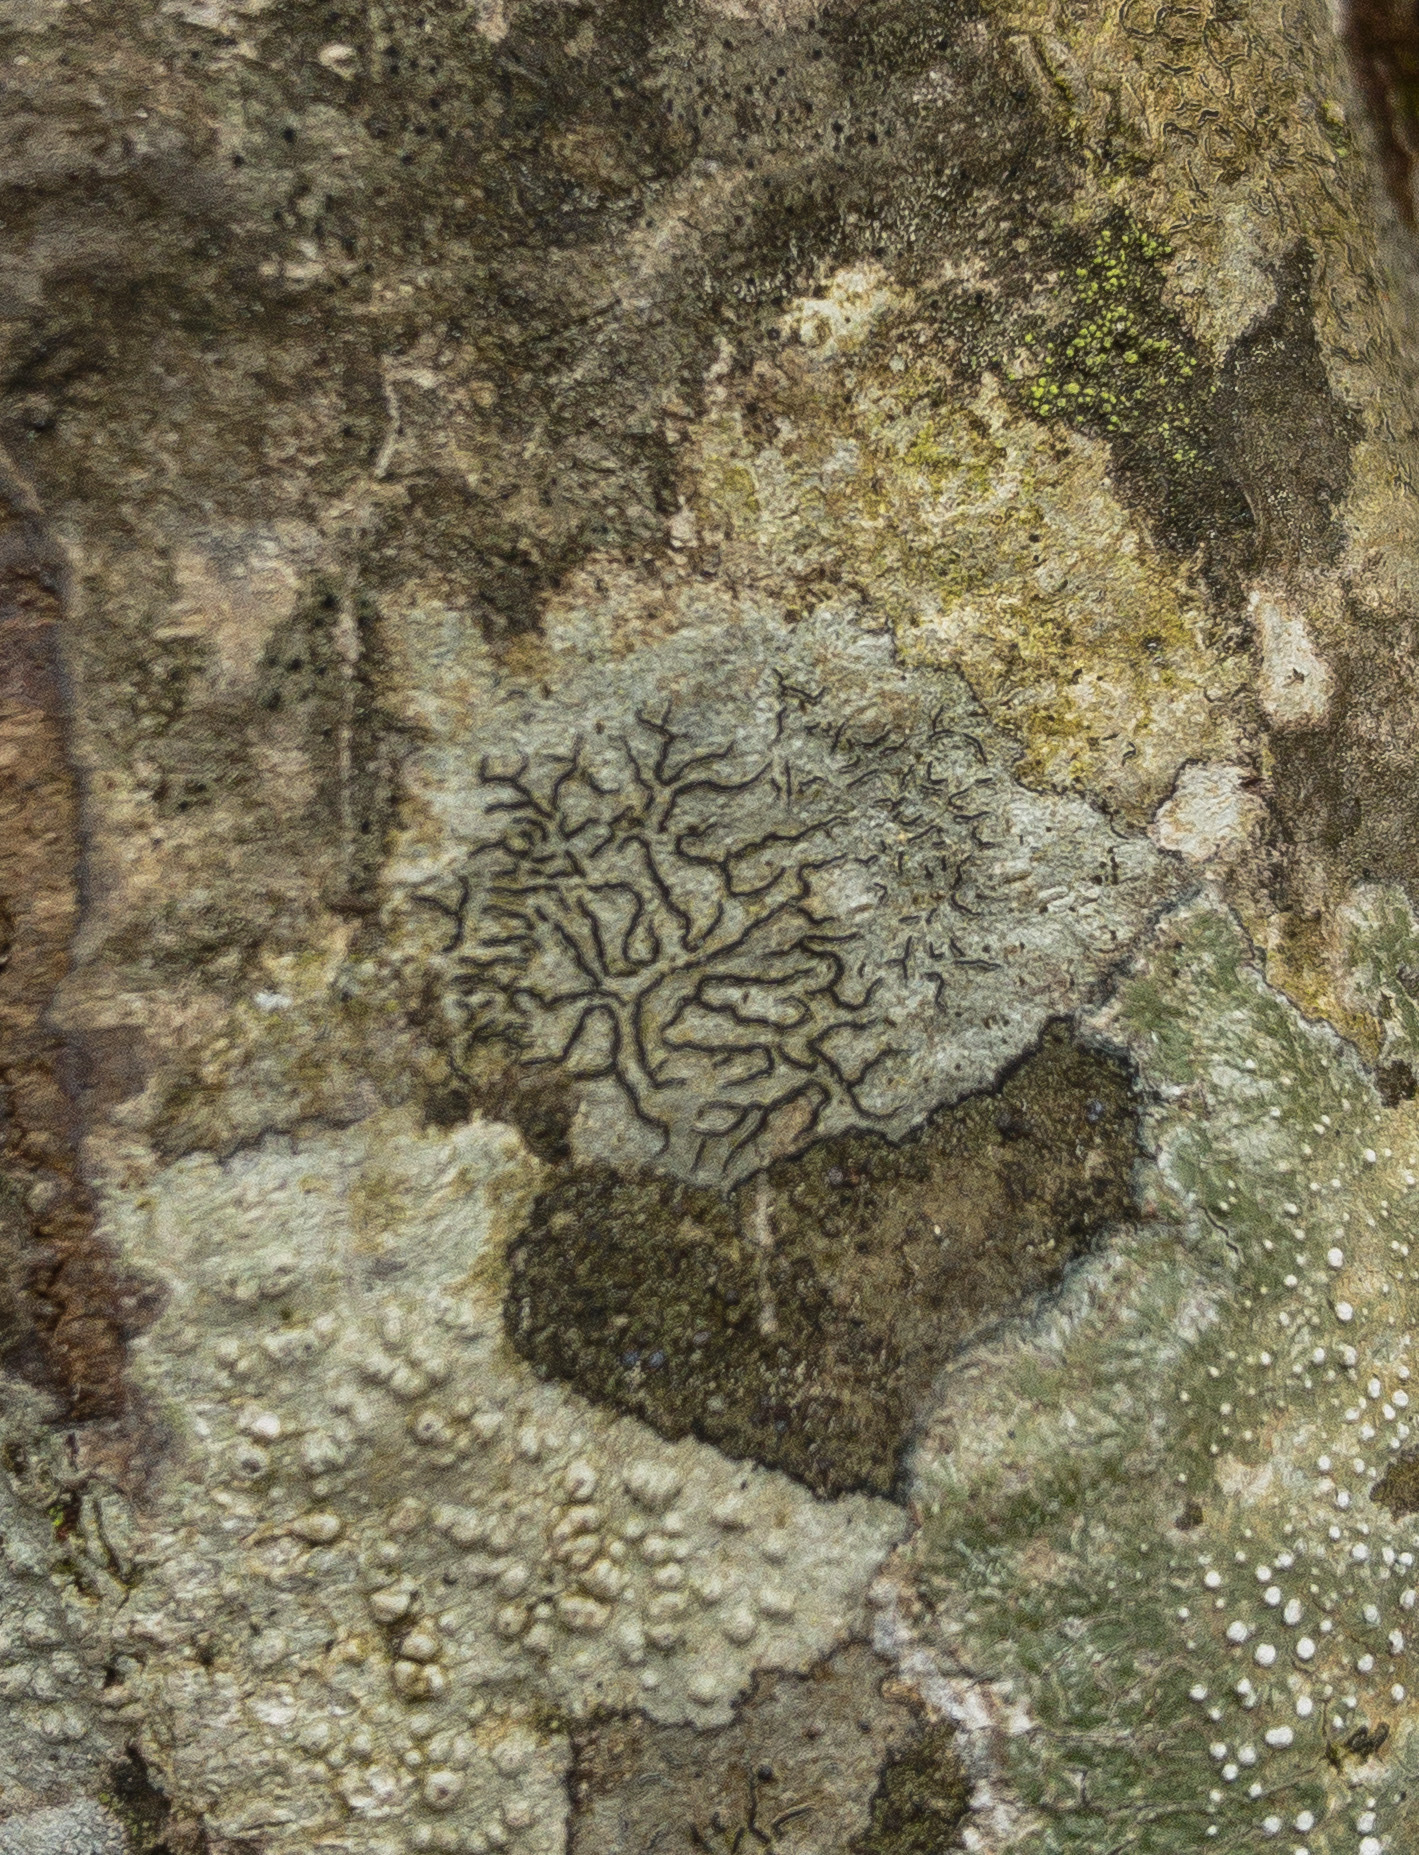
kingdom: Fungi
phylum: Ascomycota
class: Lecanoromycetes
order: Ostropales
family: Graphidaceae
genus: Graphis
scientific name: Graphis scripta
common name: Script lichen
